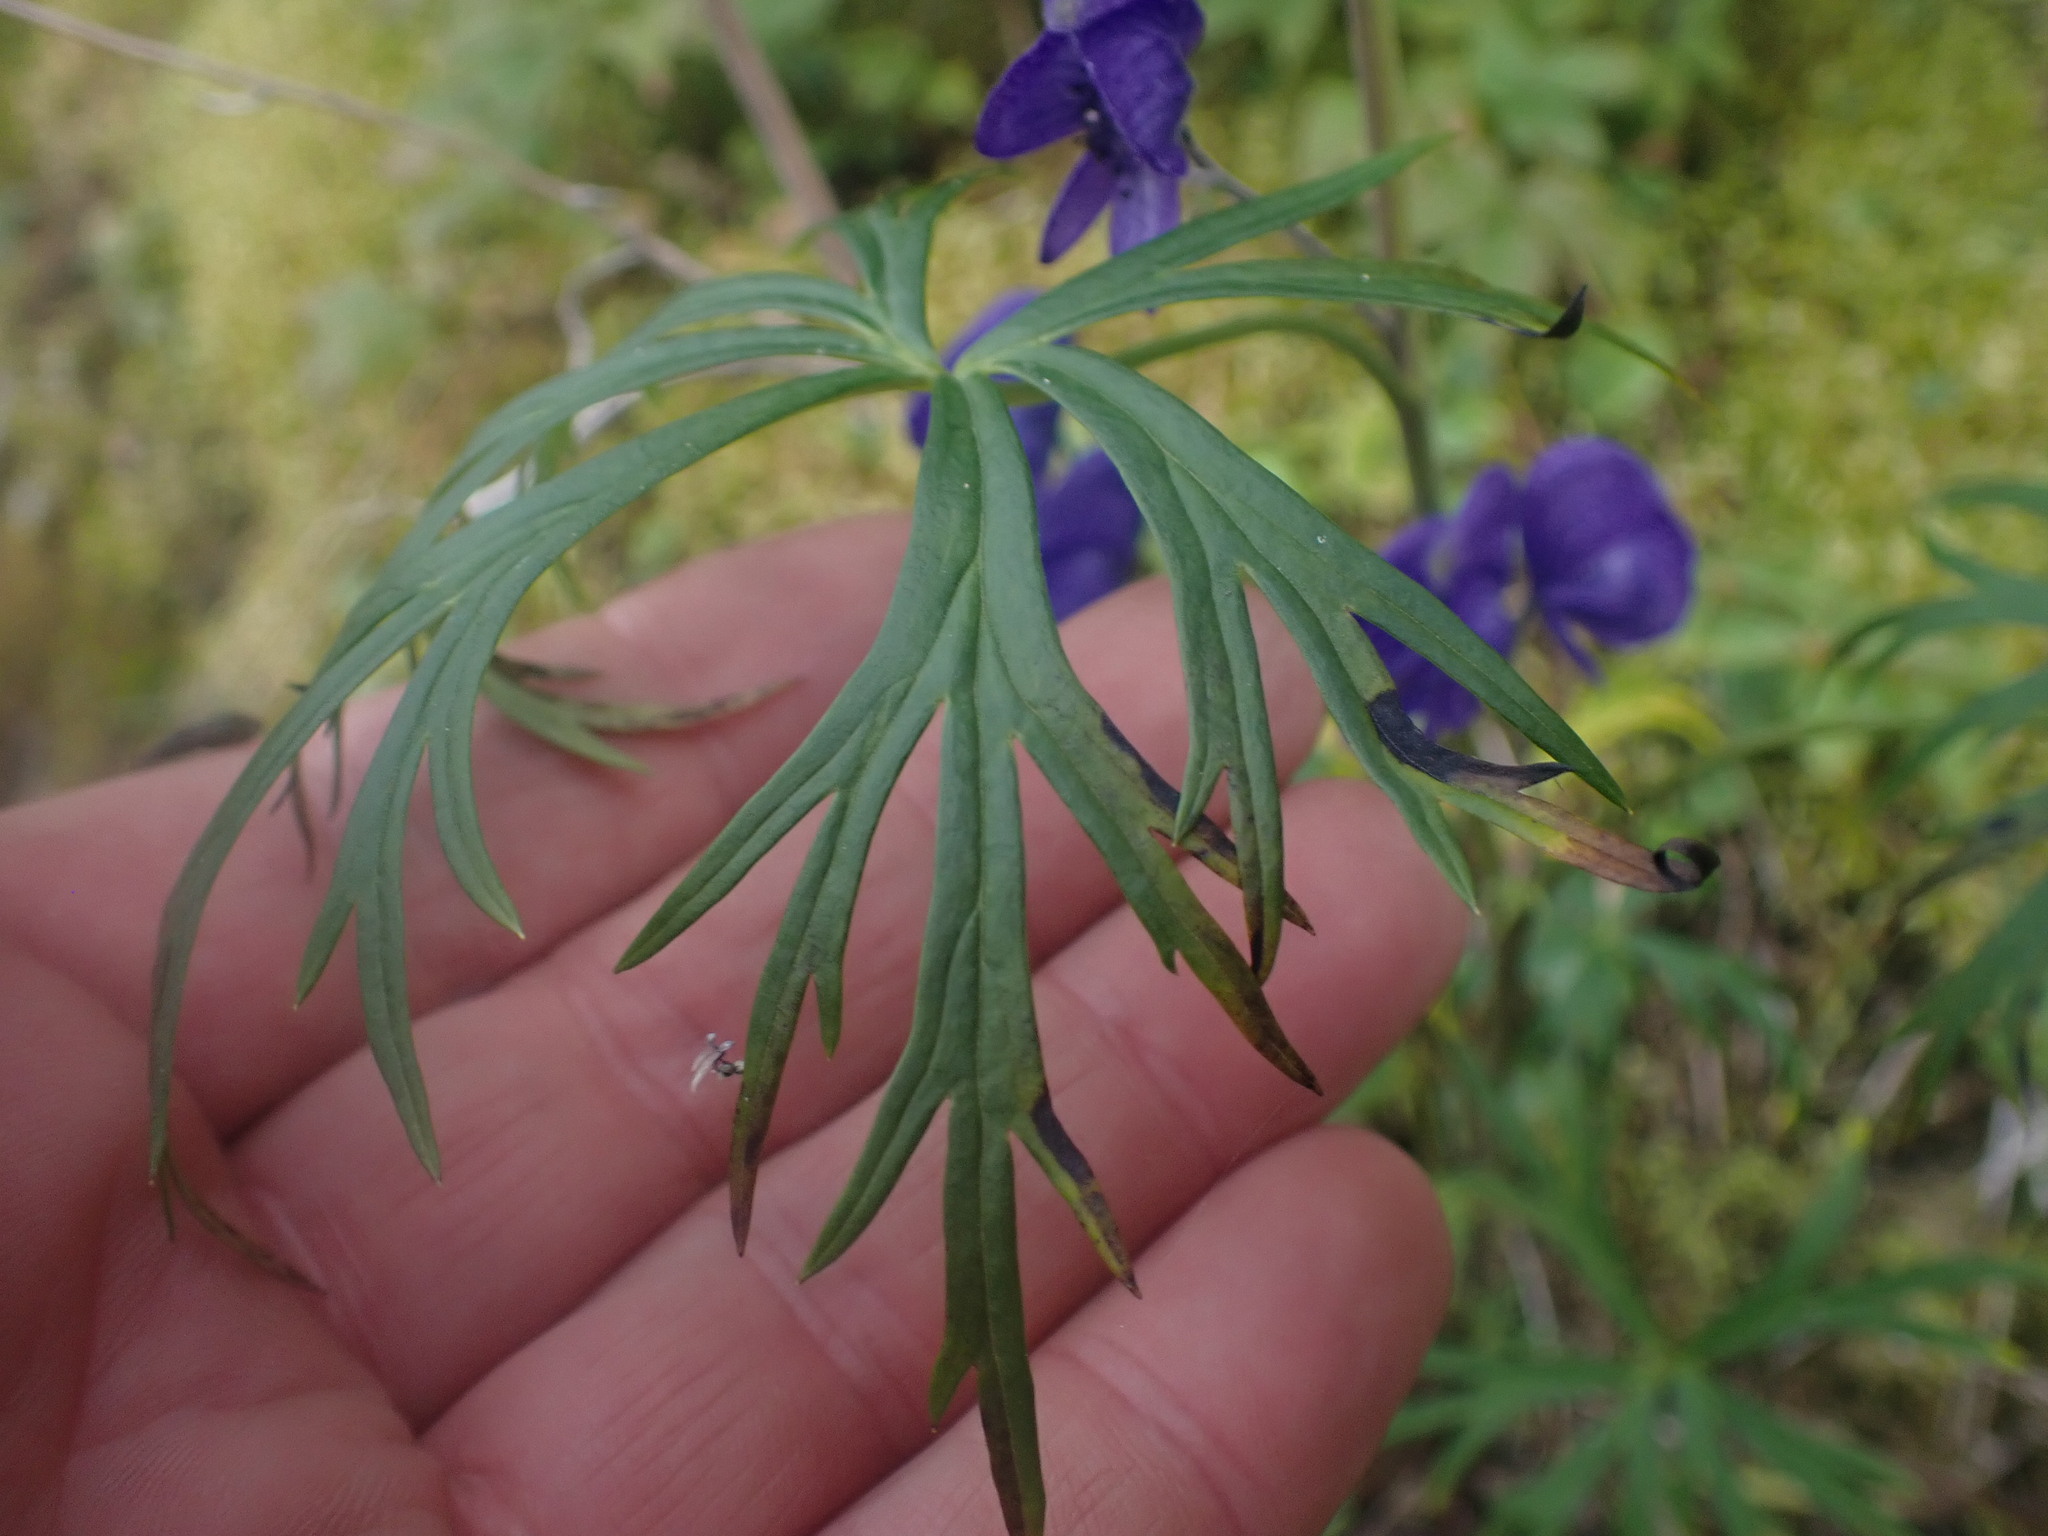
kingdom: Plantae
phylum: Tracheophyta
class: Magnoliopsida
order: Ranunculales
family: Ranunculaceae
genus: Aconitum
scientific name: Aconitum delphiniifolium
